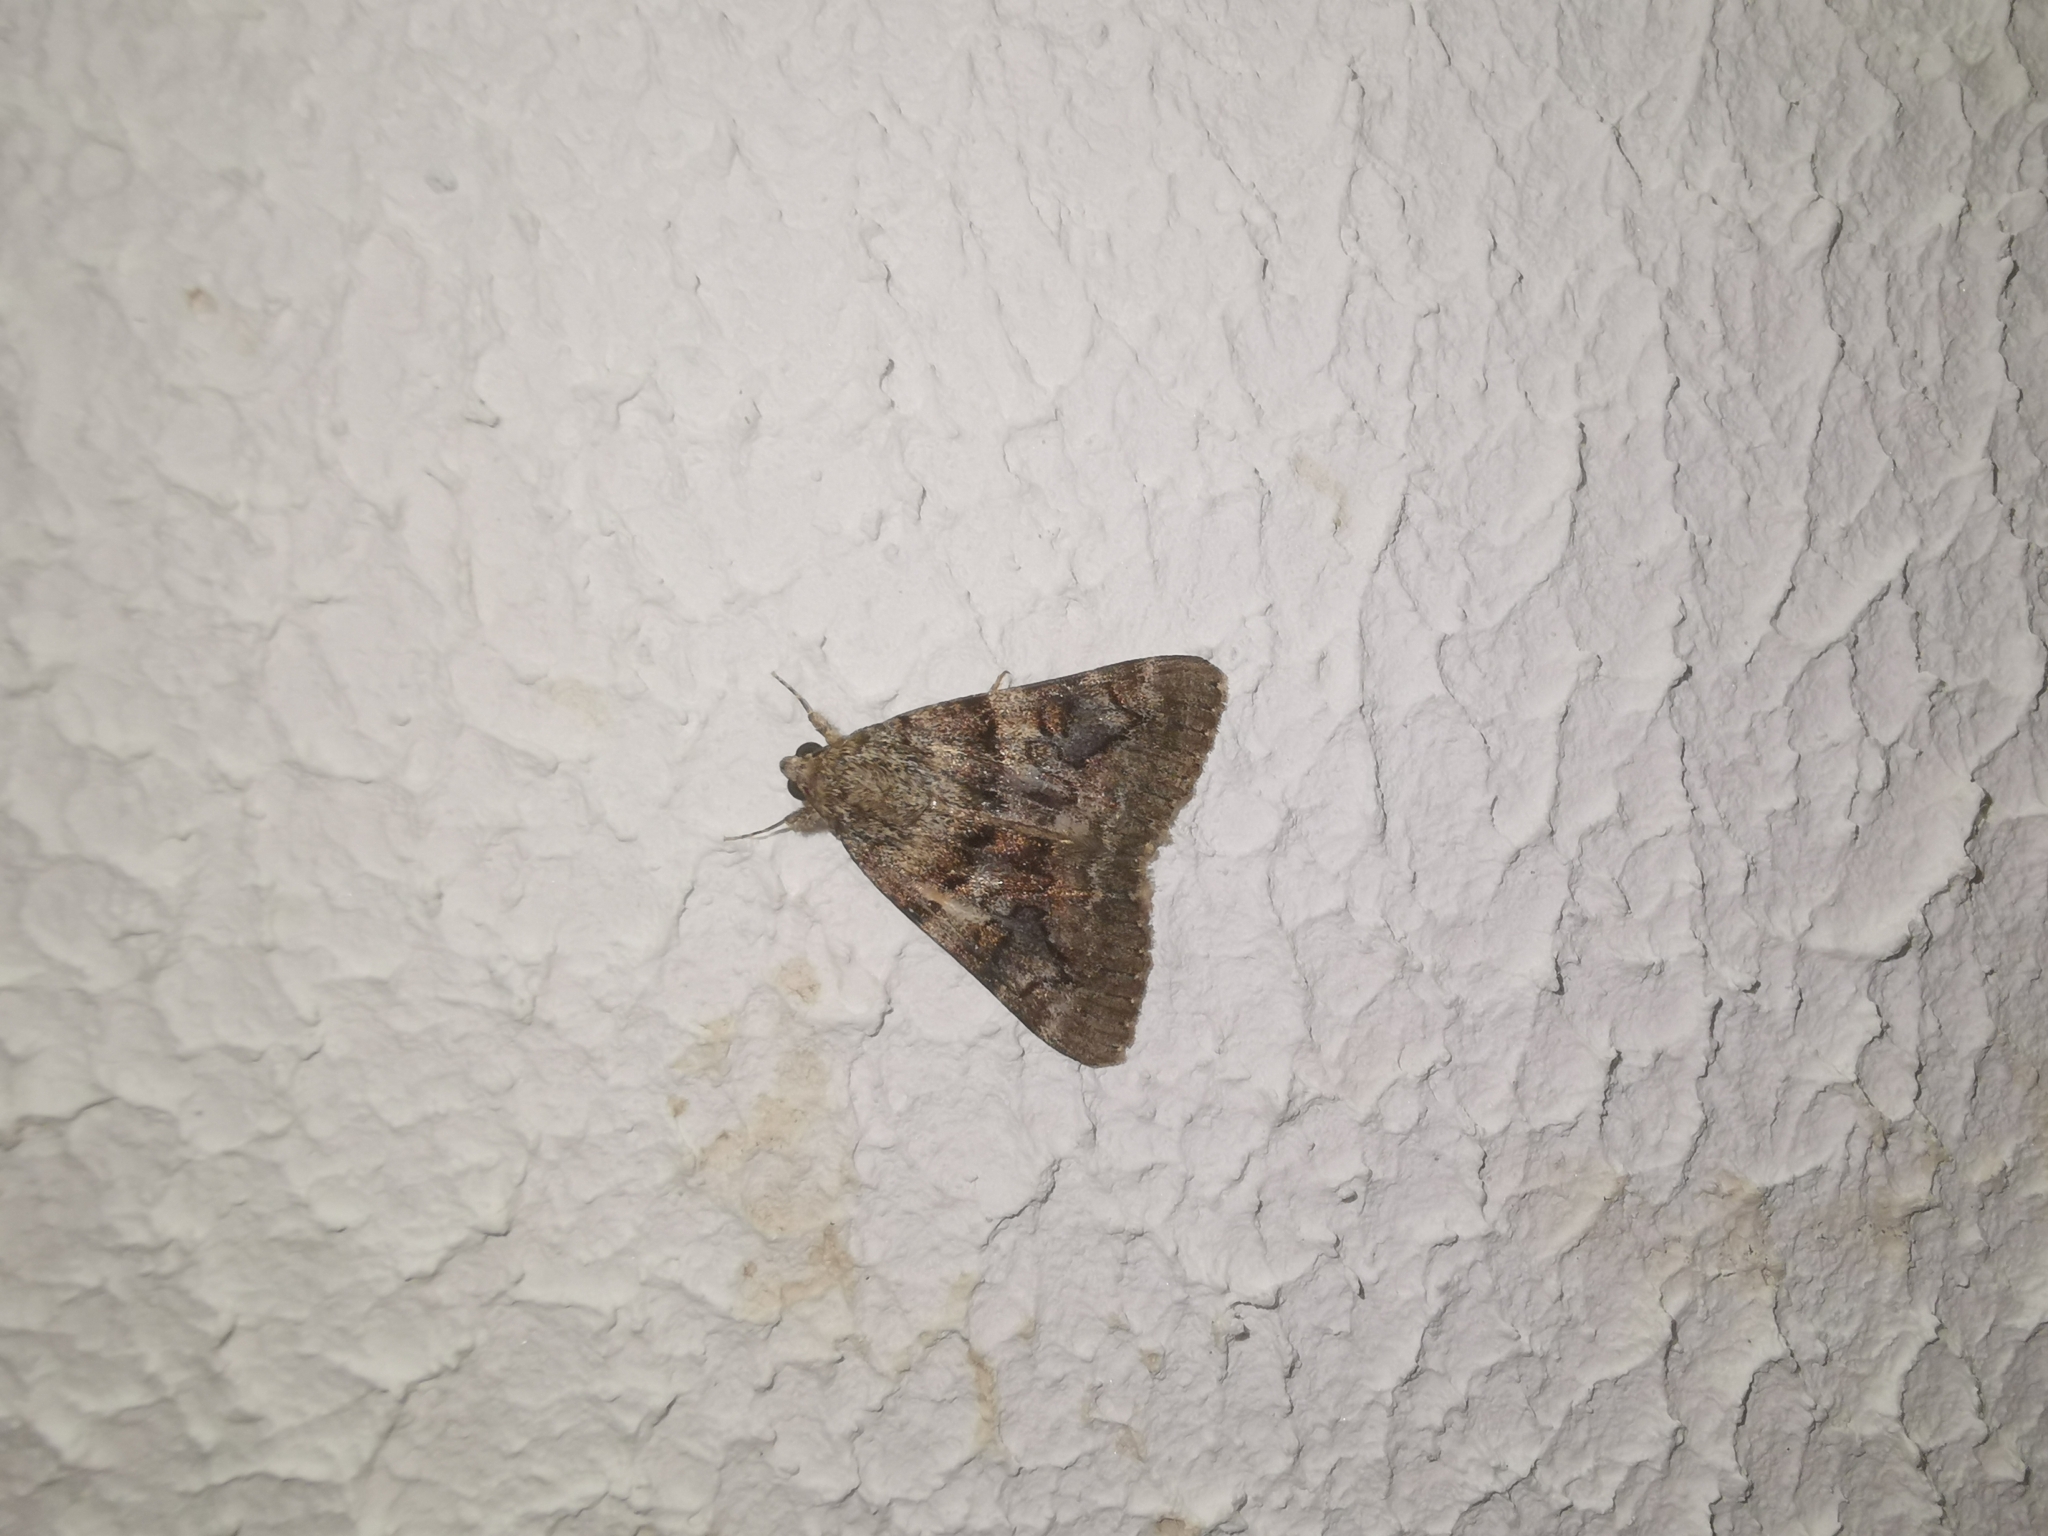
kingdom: Animalia
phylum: Arthropoda
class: Insecta
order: Lepidoptera
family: Erebidae
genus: Catocala
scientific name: Catocala nymphagoga
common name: Oak yellow underwing
